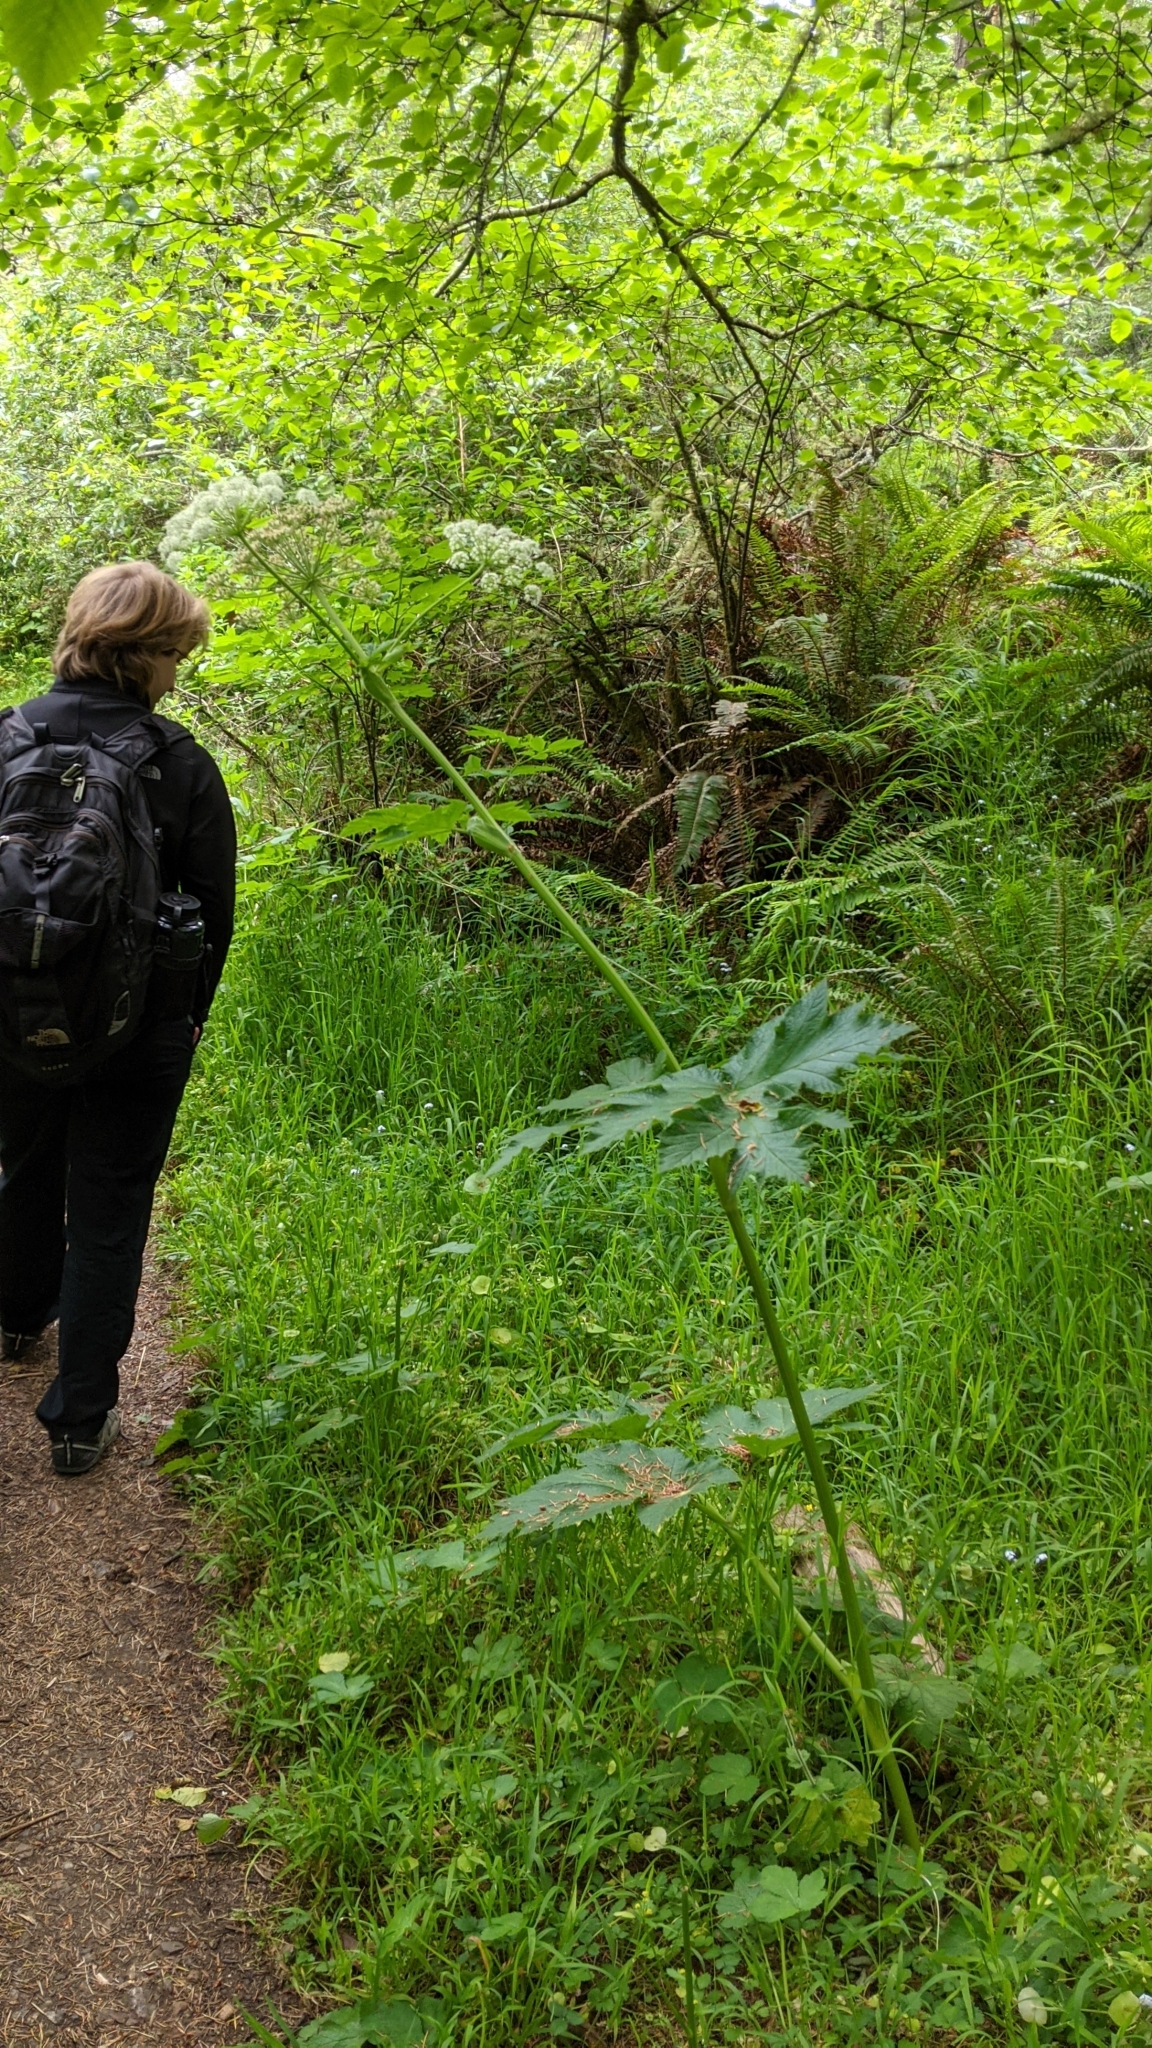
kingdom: Plantae
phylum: Tracheophyta
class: Magnoliopsida
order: Apiales
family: Apiaceae
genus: Heracleum
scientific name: Heracleum maximum
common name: American cow parsnip
